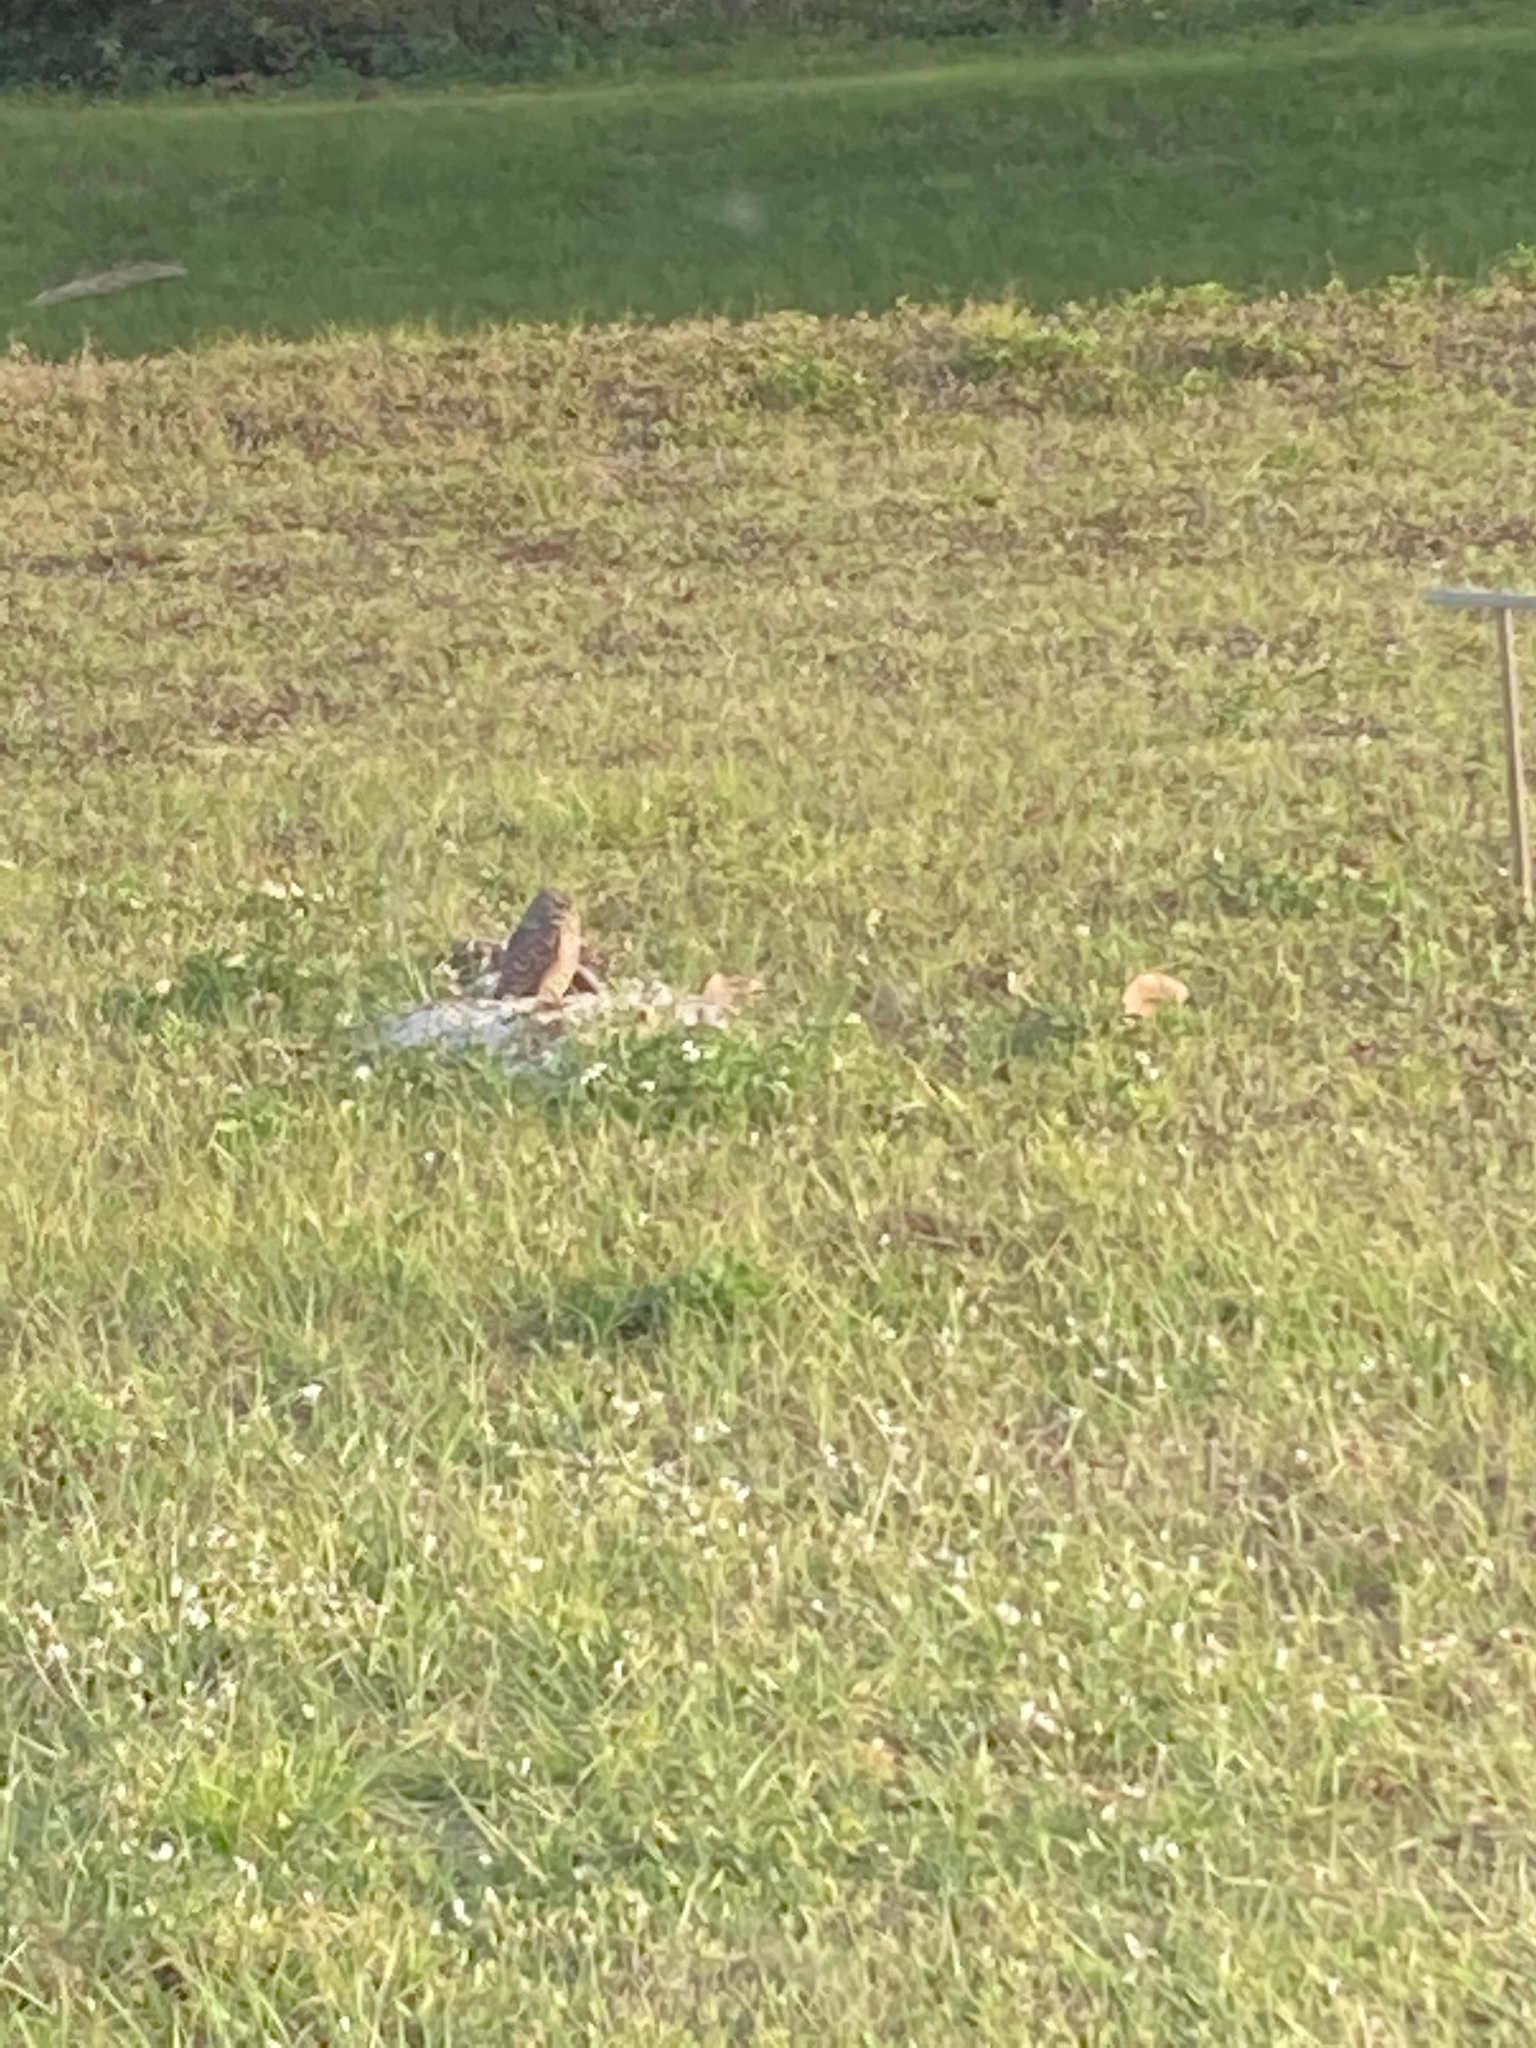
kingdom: Animalia
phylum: Chordata
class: Aves
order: Strigiformes
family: Strigidae
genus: Athene
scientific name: Athene cunicularia
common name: Burrowing owl
